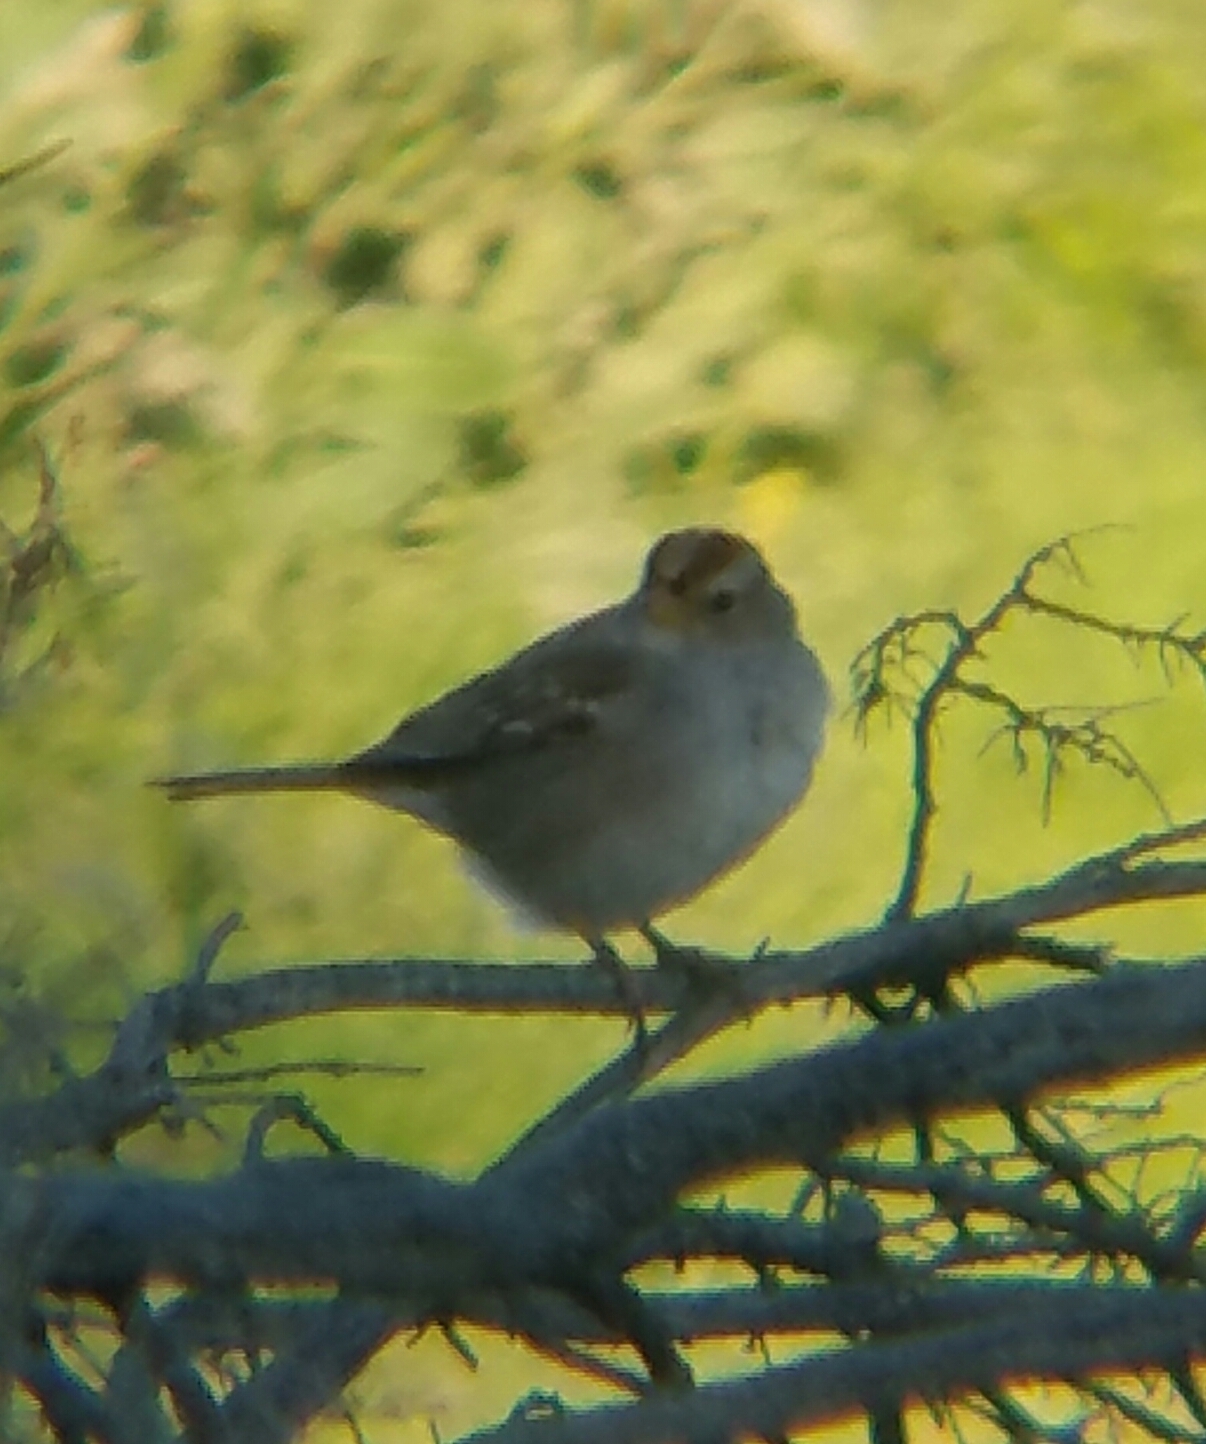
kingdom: Animalia
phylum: Chordata
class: Aves
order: Passeriformes
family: Passerellidae
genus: Zonotrichia
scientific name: Zonotrichia leucophrys
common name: White-crowned sparrow
